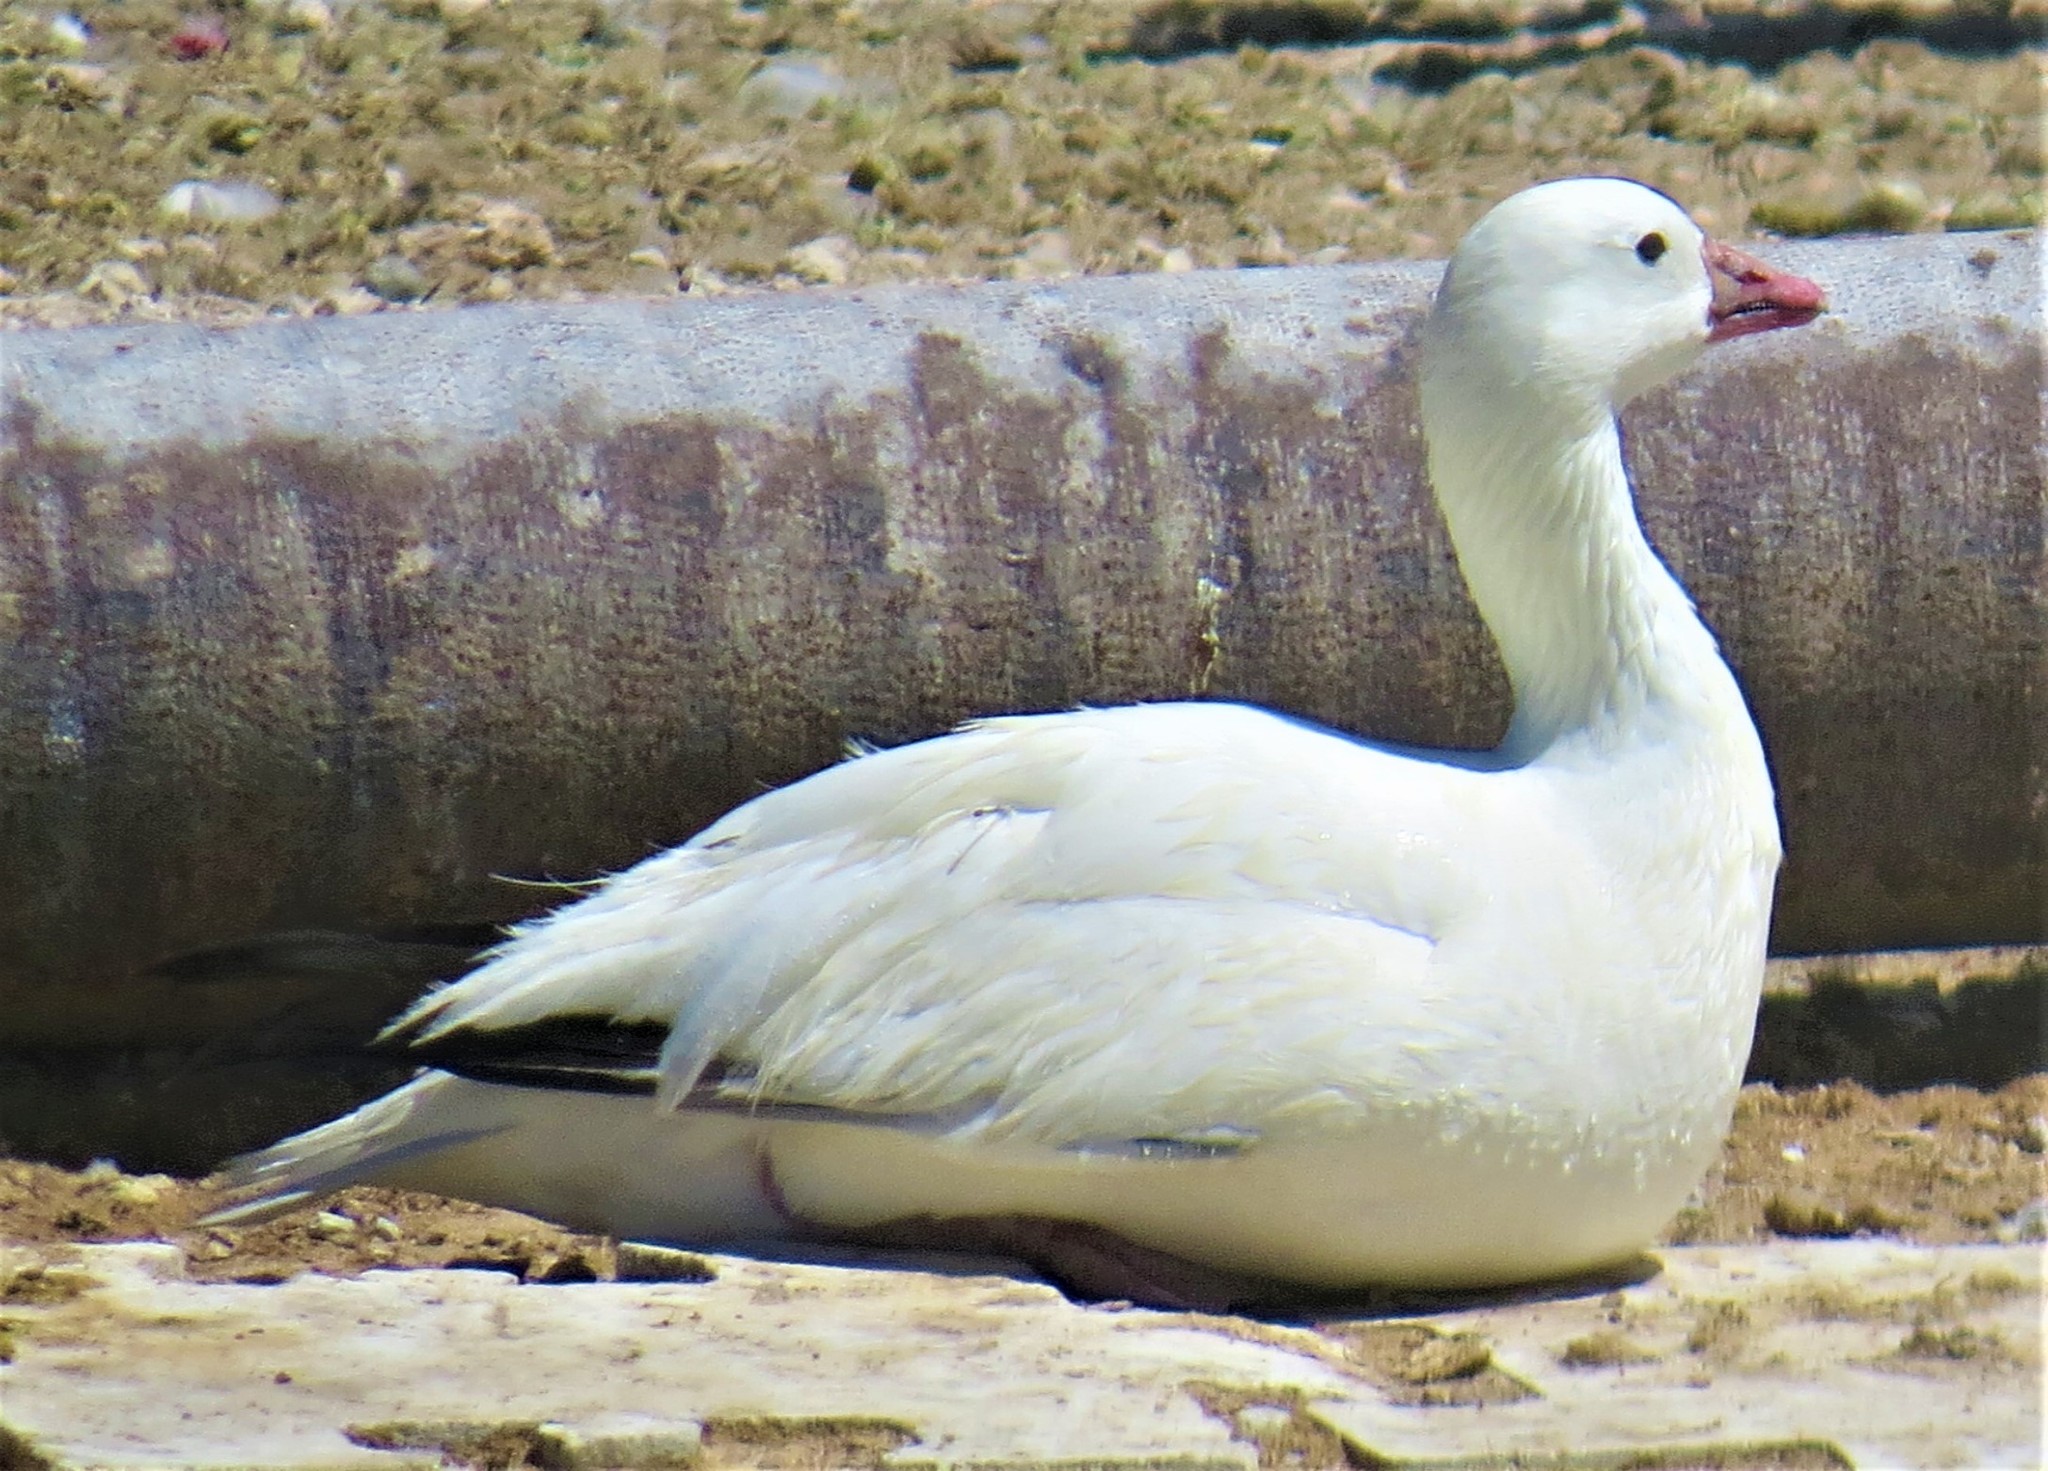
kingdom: Animalia
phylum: Chordata
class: Aves
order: Anseriformes
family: Anatidae
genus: Anser
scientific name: Anser rossii
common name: Ross's goose
